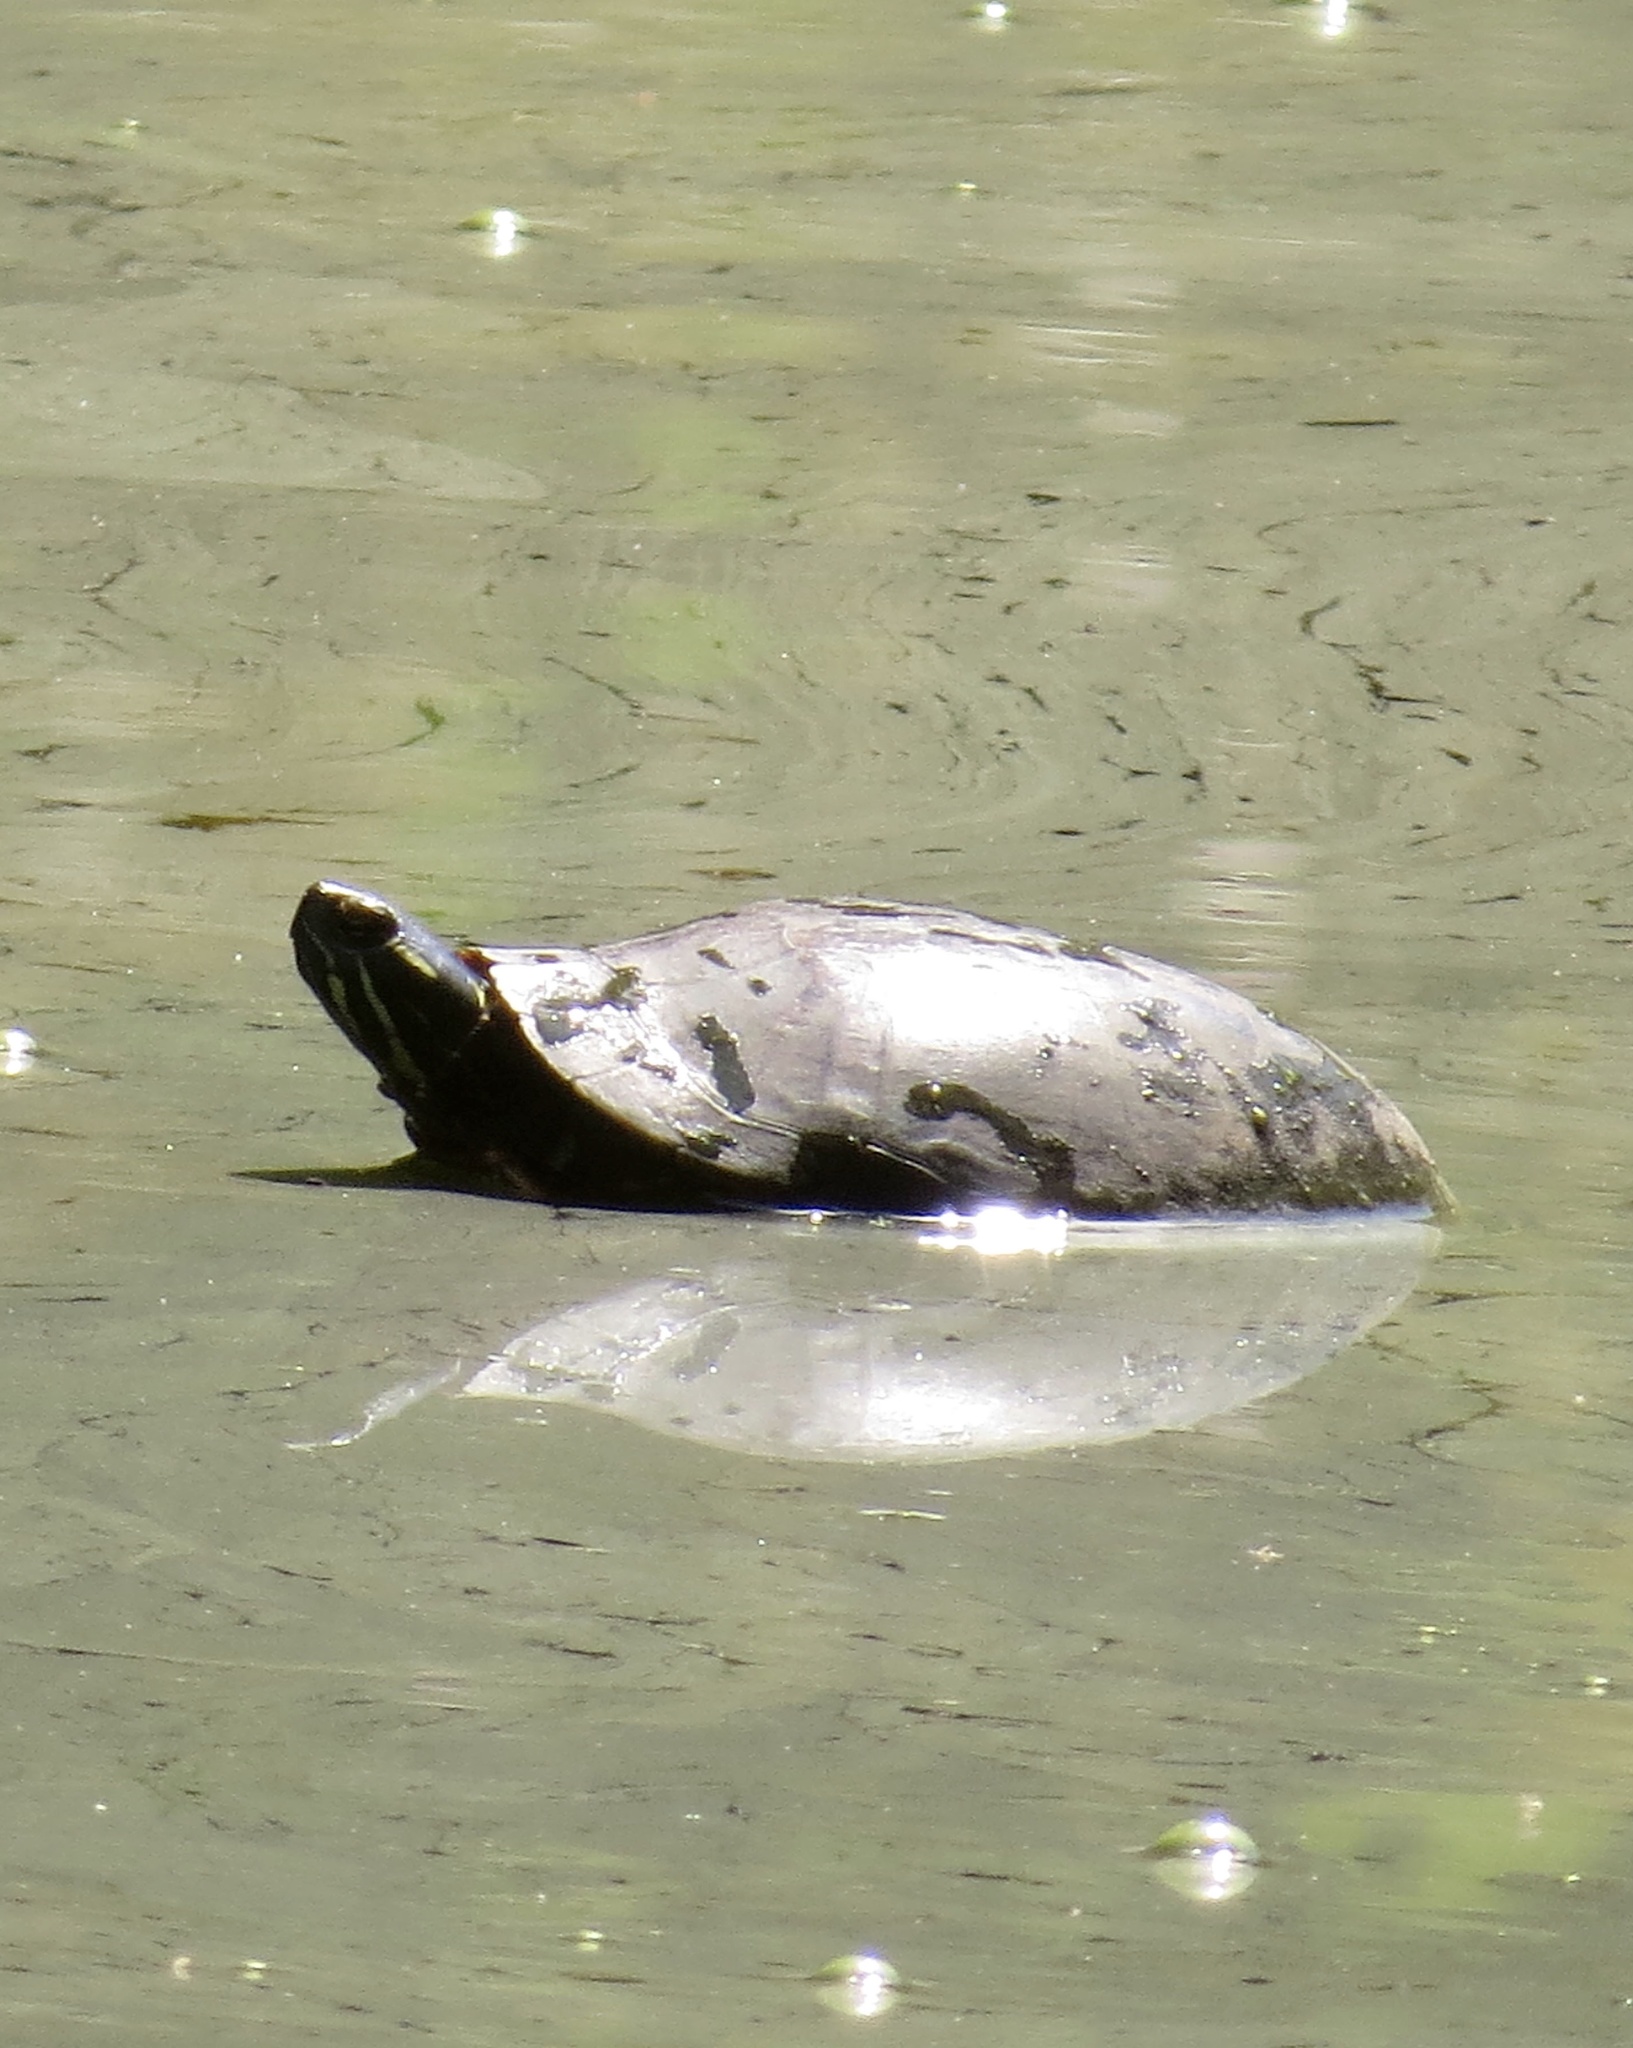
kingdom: Animalia
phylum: Chordata
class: Testudines
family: Emydidae
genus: Chrysemys
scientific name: Chrysemys picta
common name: Painted turtle
